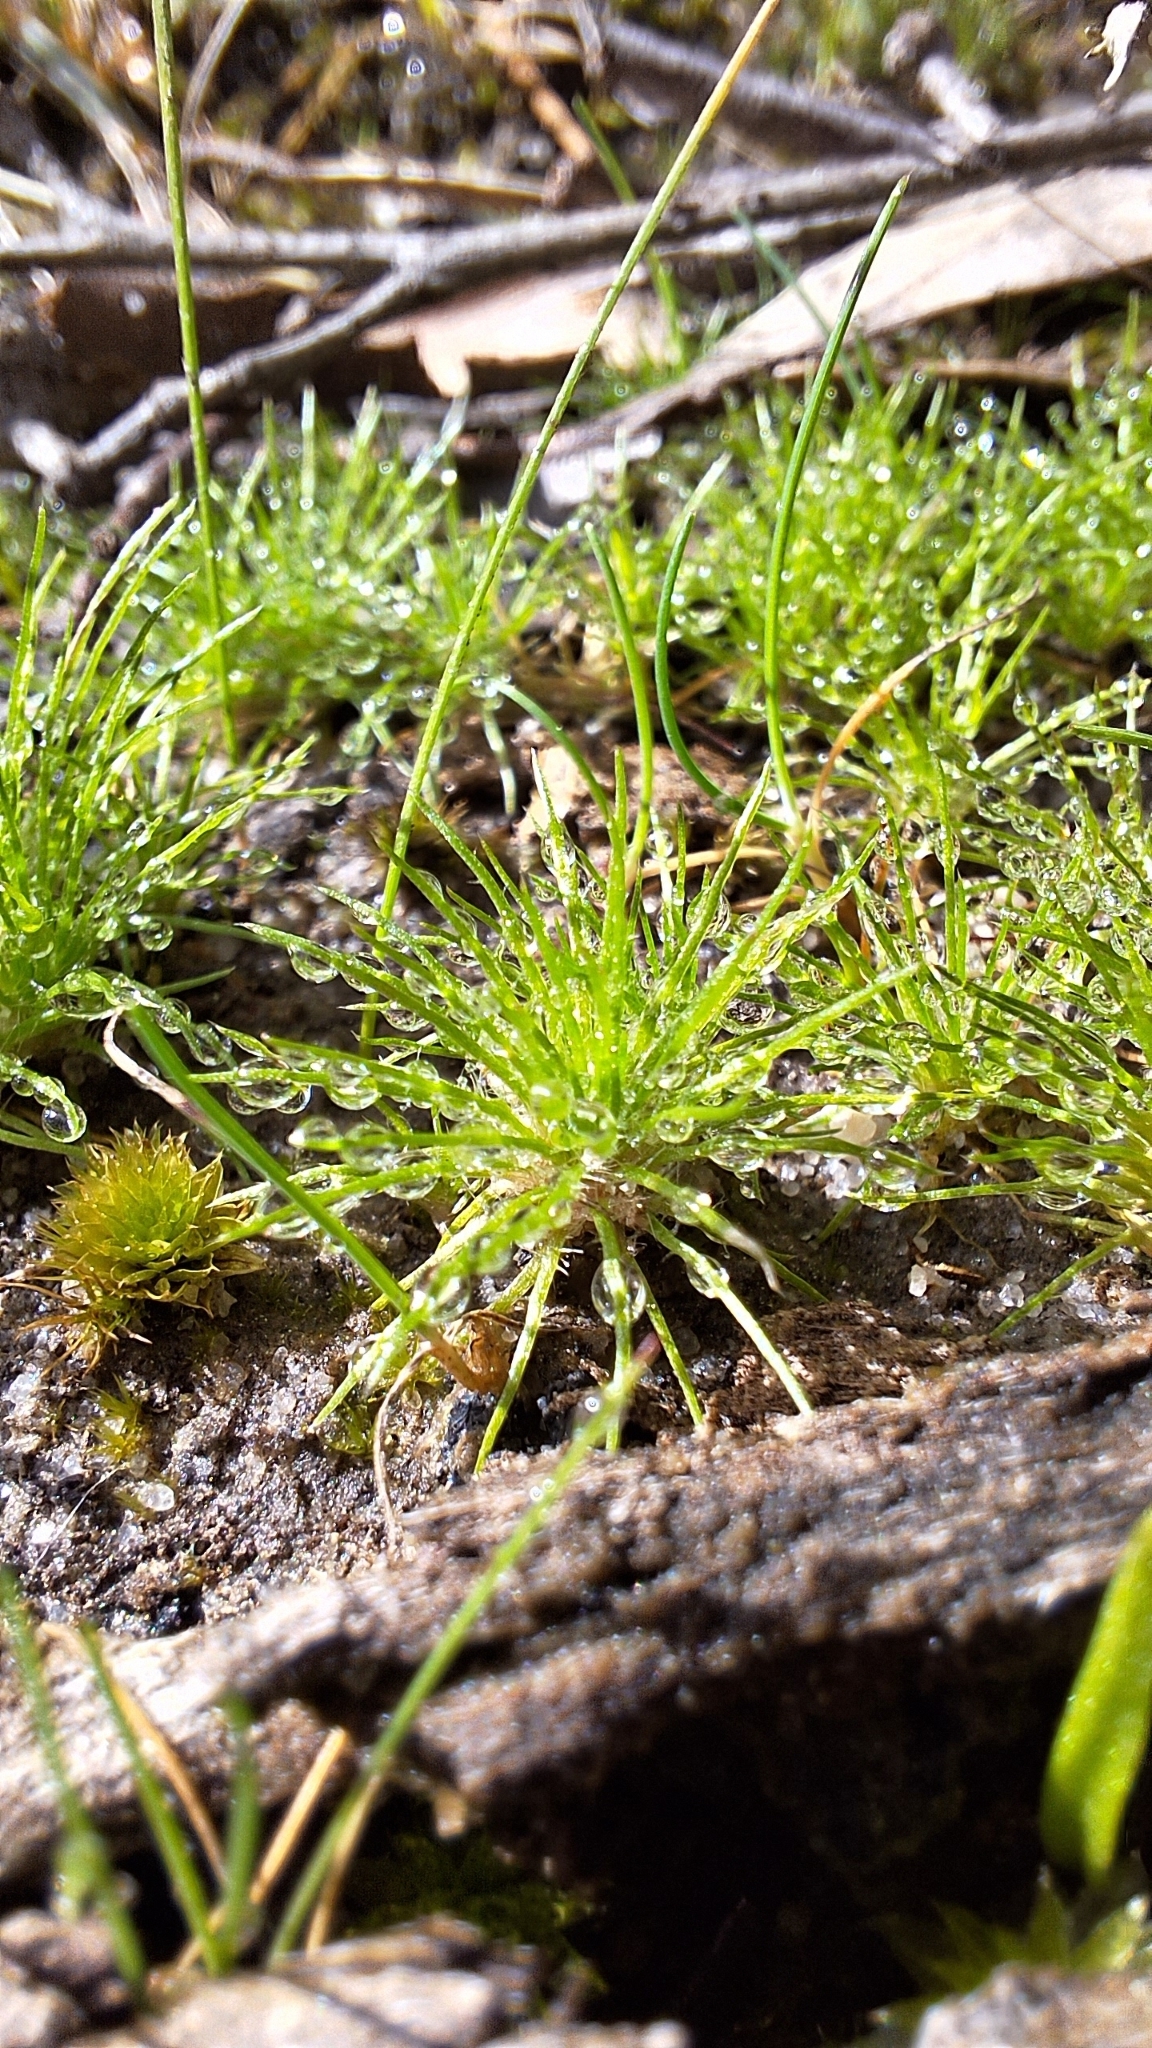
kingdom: Plantae
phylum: Tracheophyta
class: Liliopsida
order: Poales
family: Restionaceae
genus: Centrolepis
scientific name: Centrolepis strigosa
